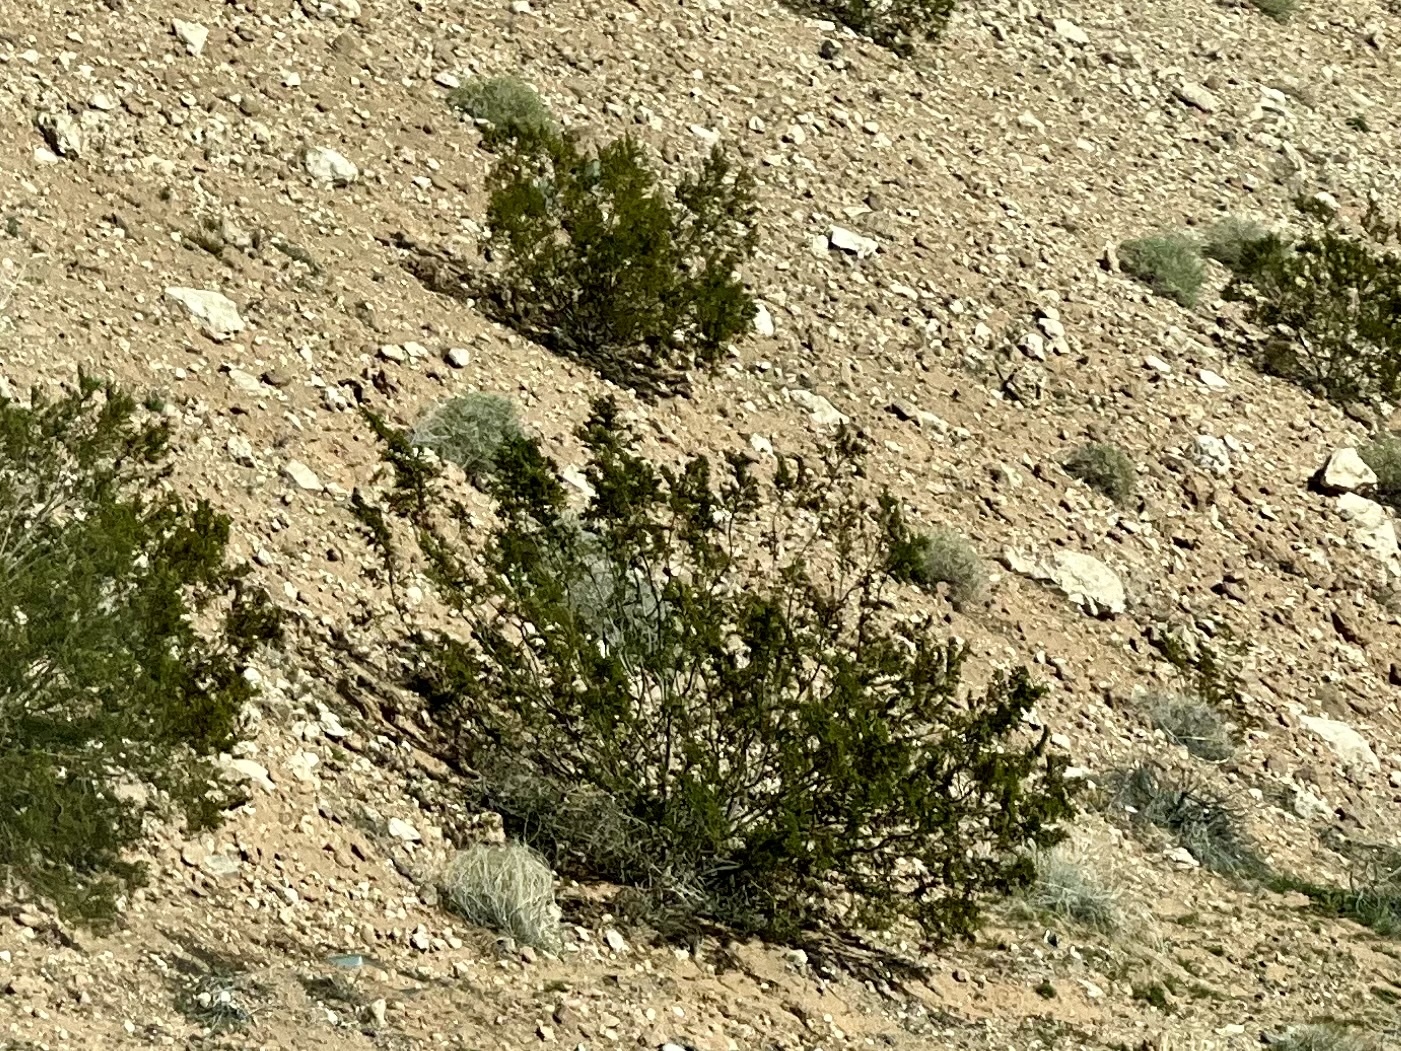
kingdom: Plantae
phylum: Tracheophyta
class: Magnoliopsida
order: Zygophyllales
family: Zygophyllaceae
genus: Larrea
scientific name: Larrea tridentata
